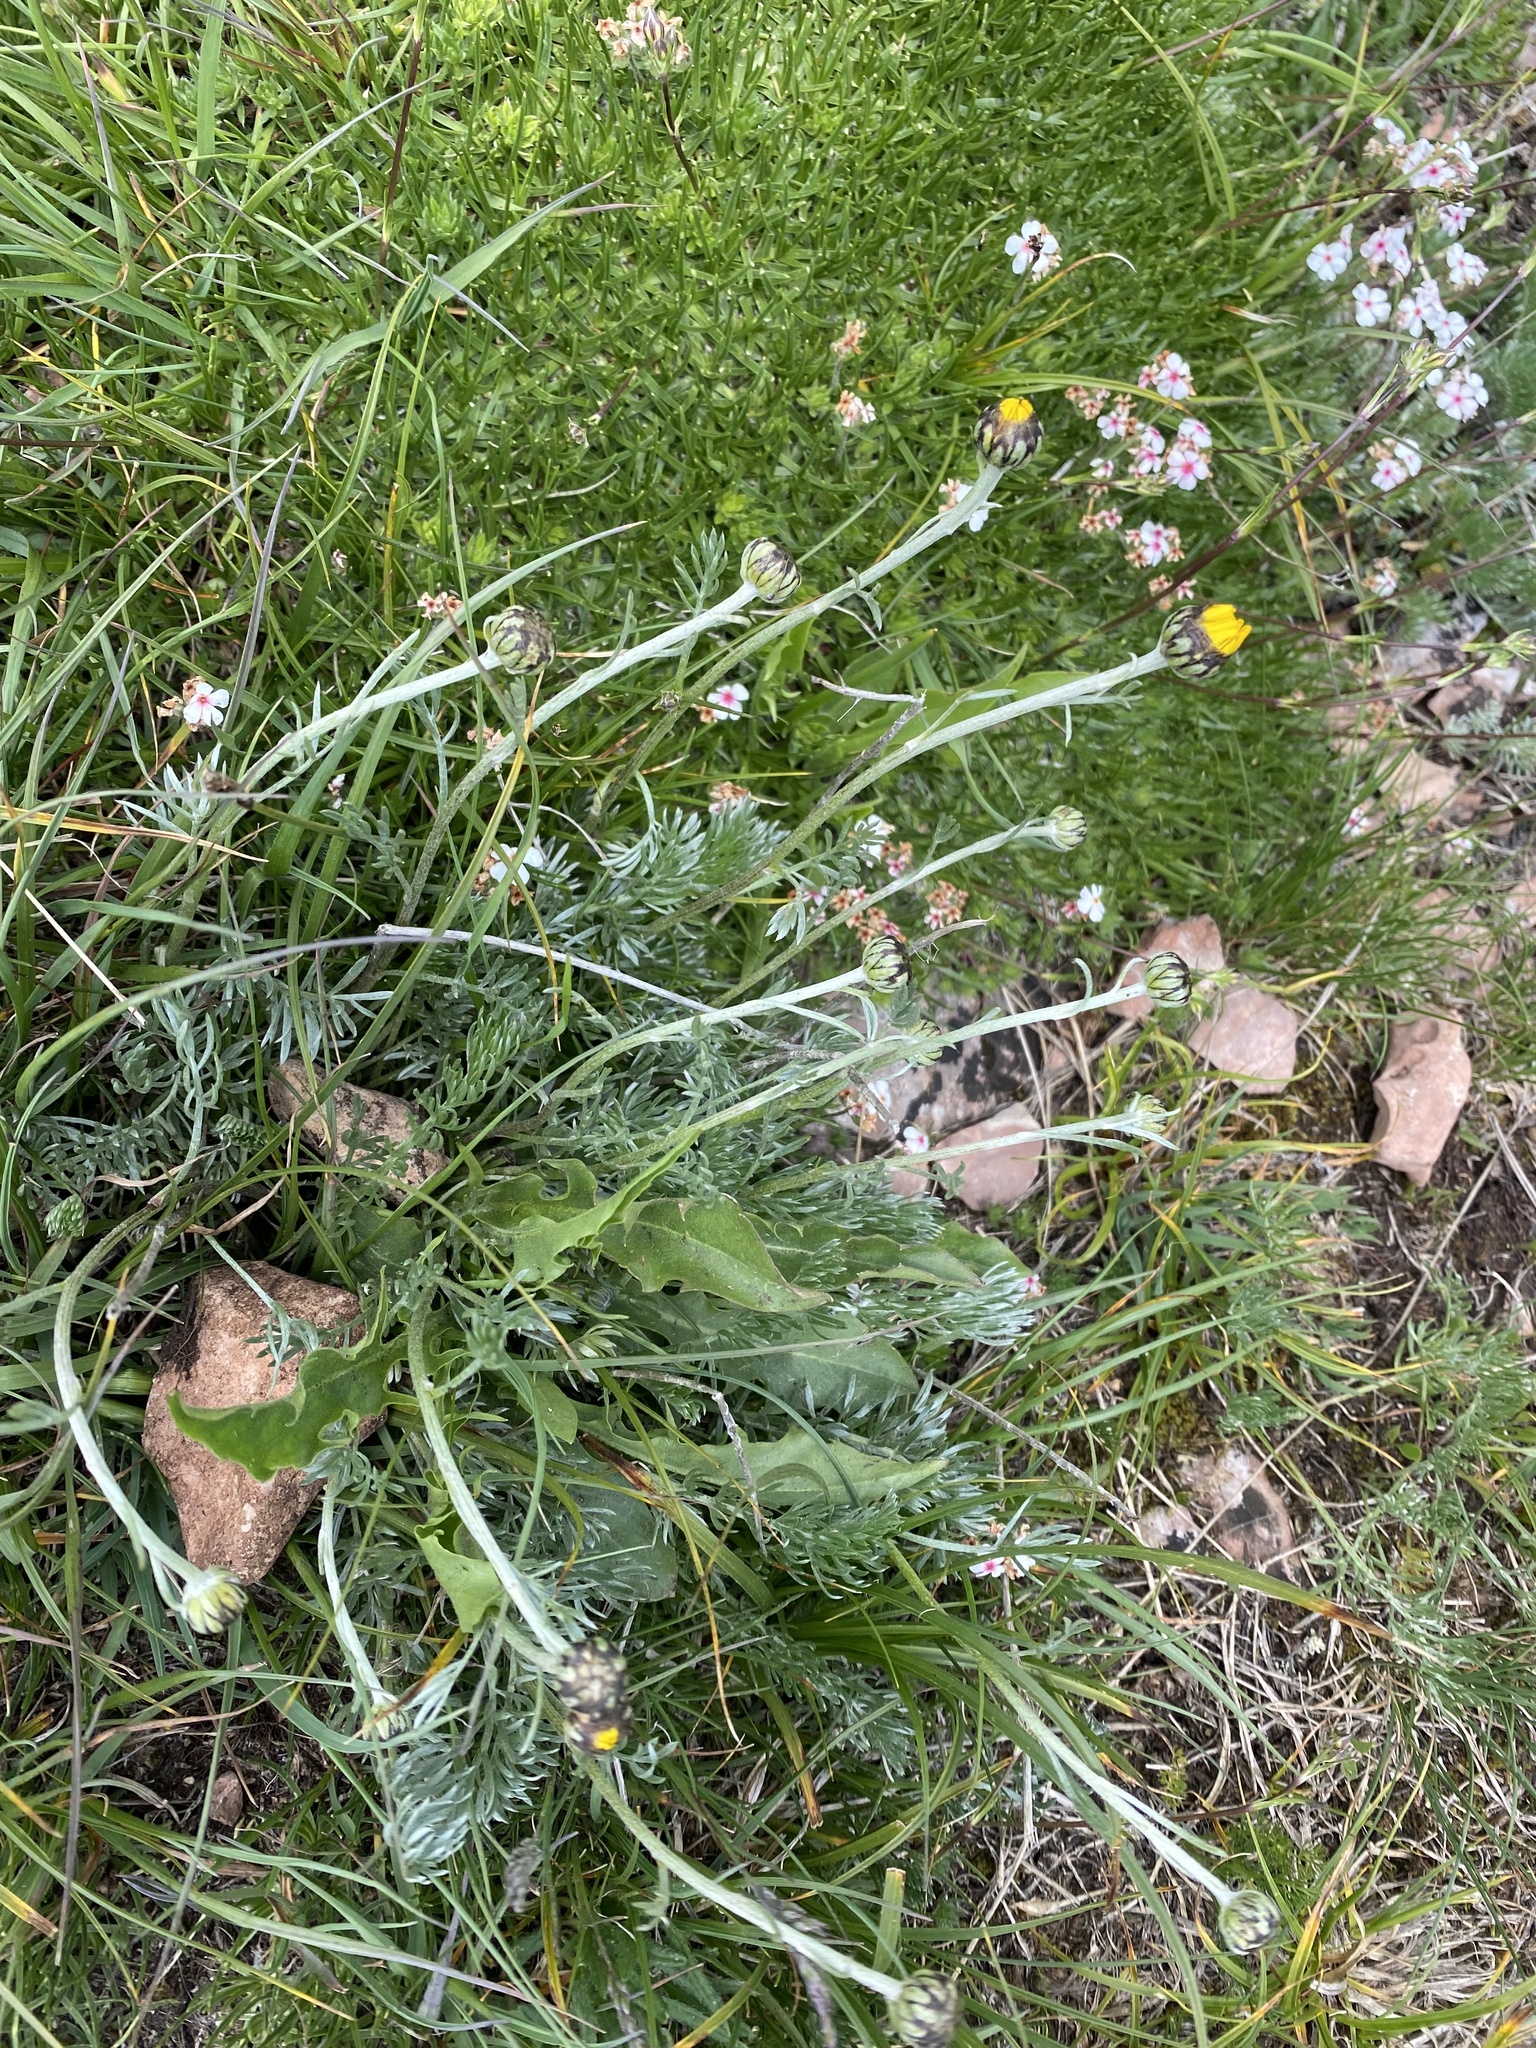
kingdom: Plantae
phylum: Tracheophyta
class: Magnoliopsida
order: Asterales
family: Asteraceae
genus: Archanthemis
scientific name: Archanthemis marschalliana
